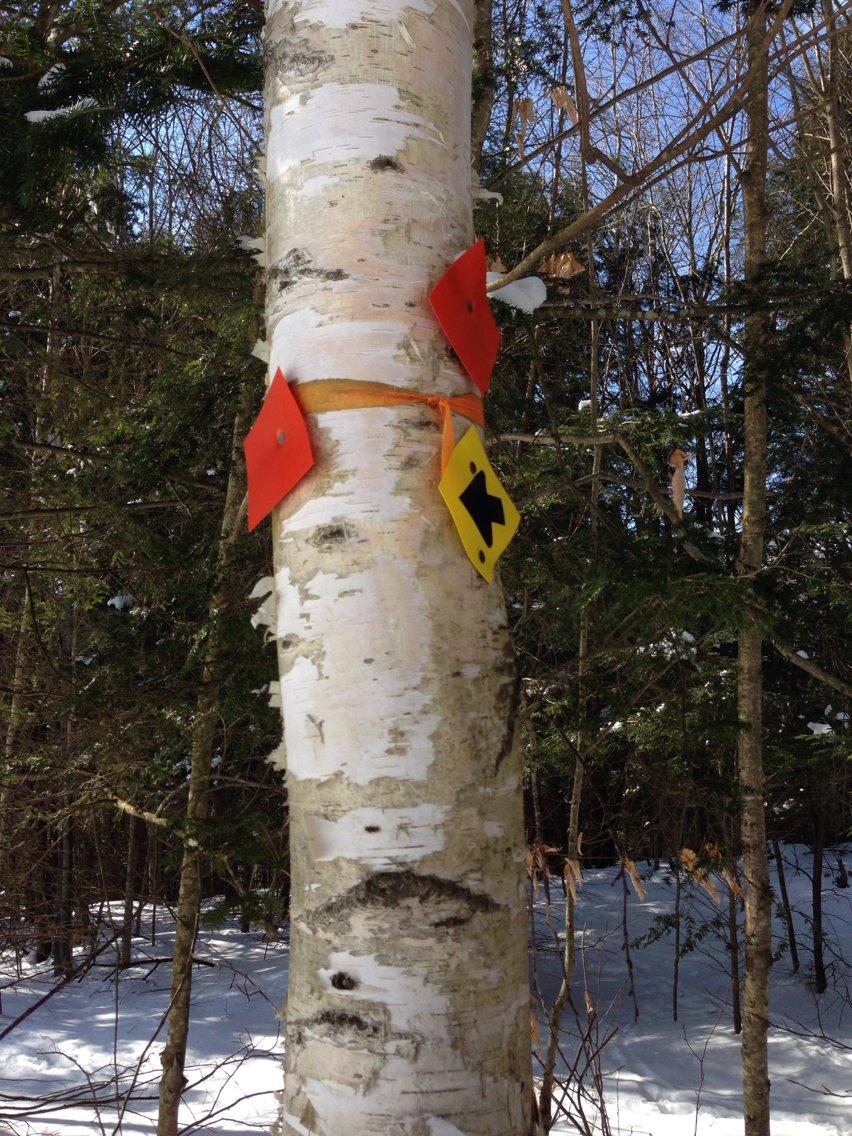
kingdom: Plantae
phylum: Tracheophyta
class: Magnoliopsida
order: Fagales
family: Betulaceae
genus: Betula
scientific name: Betula papyrifera
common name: Paper birch
